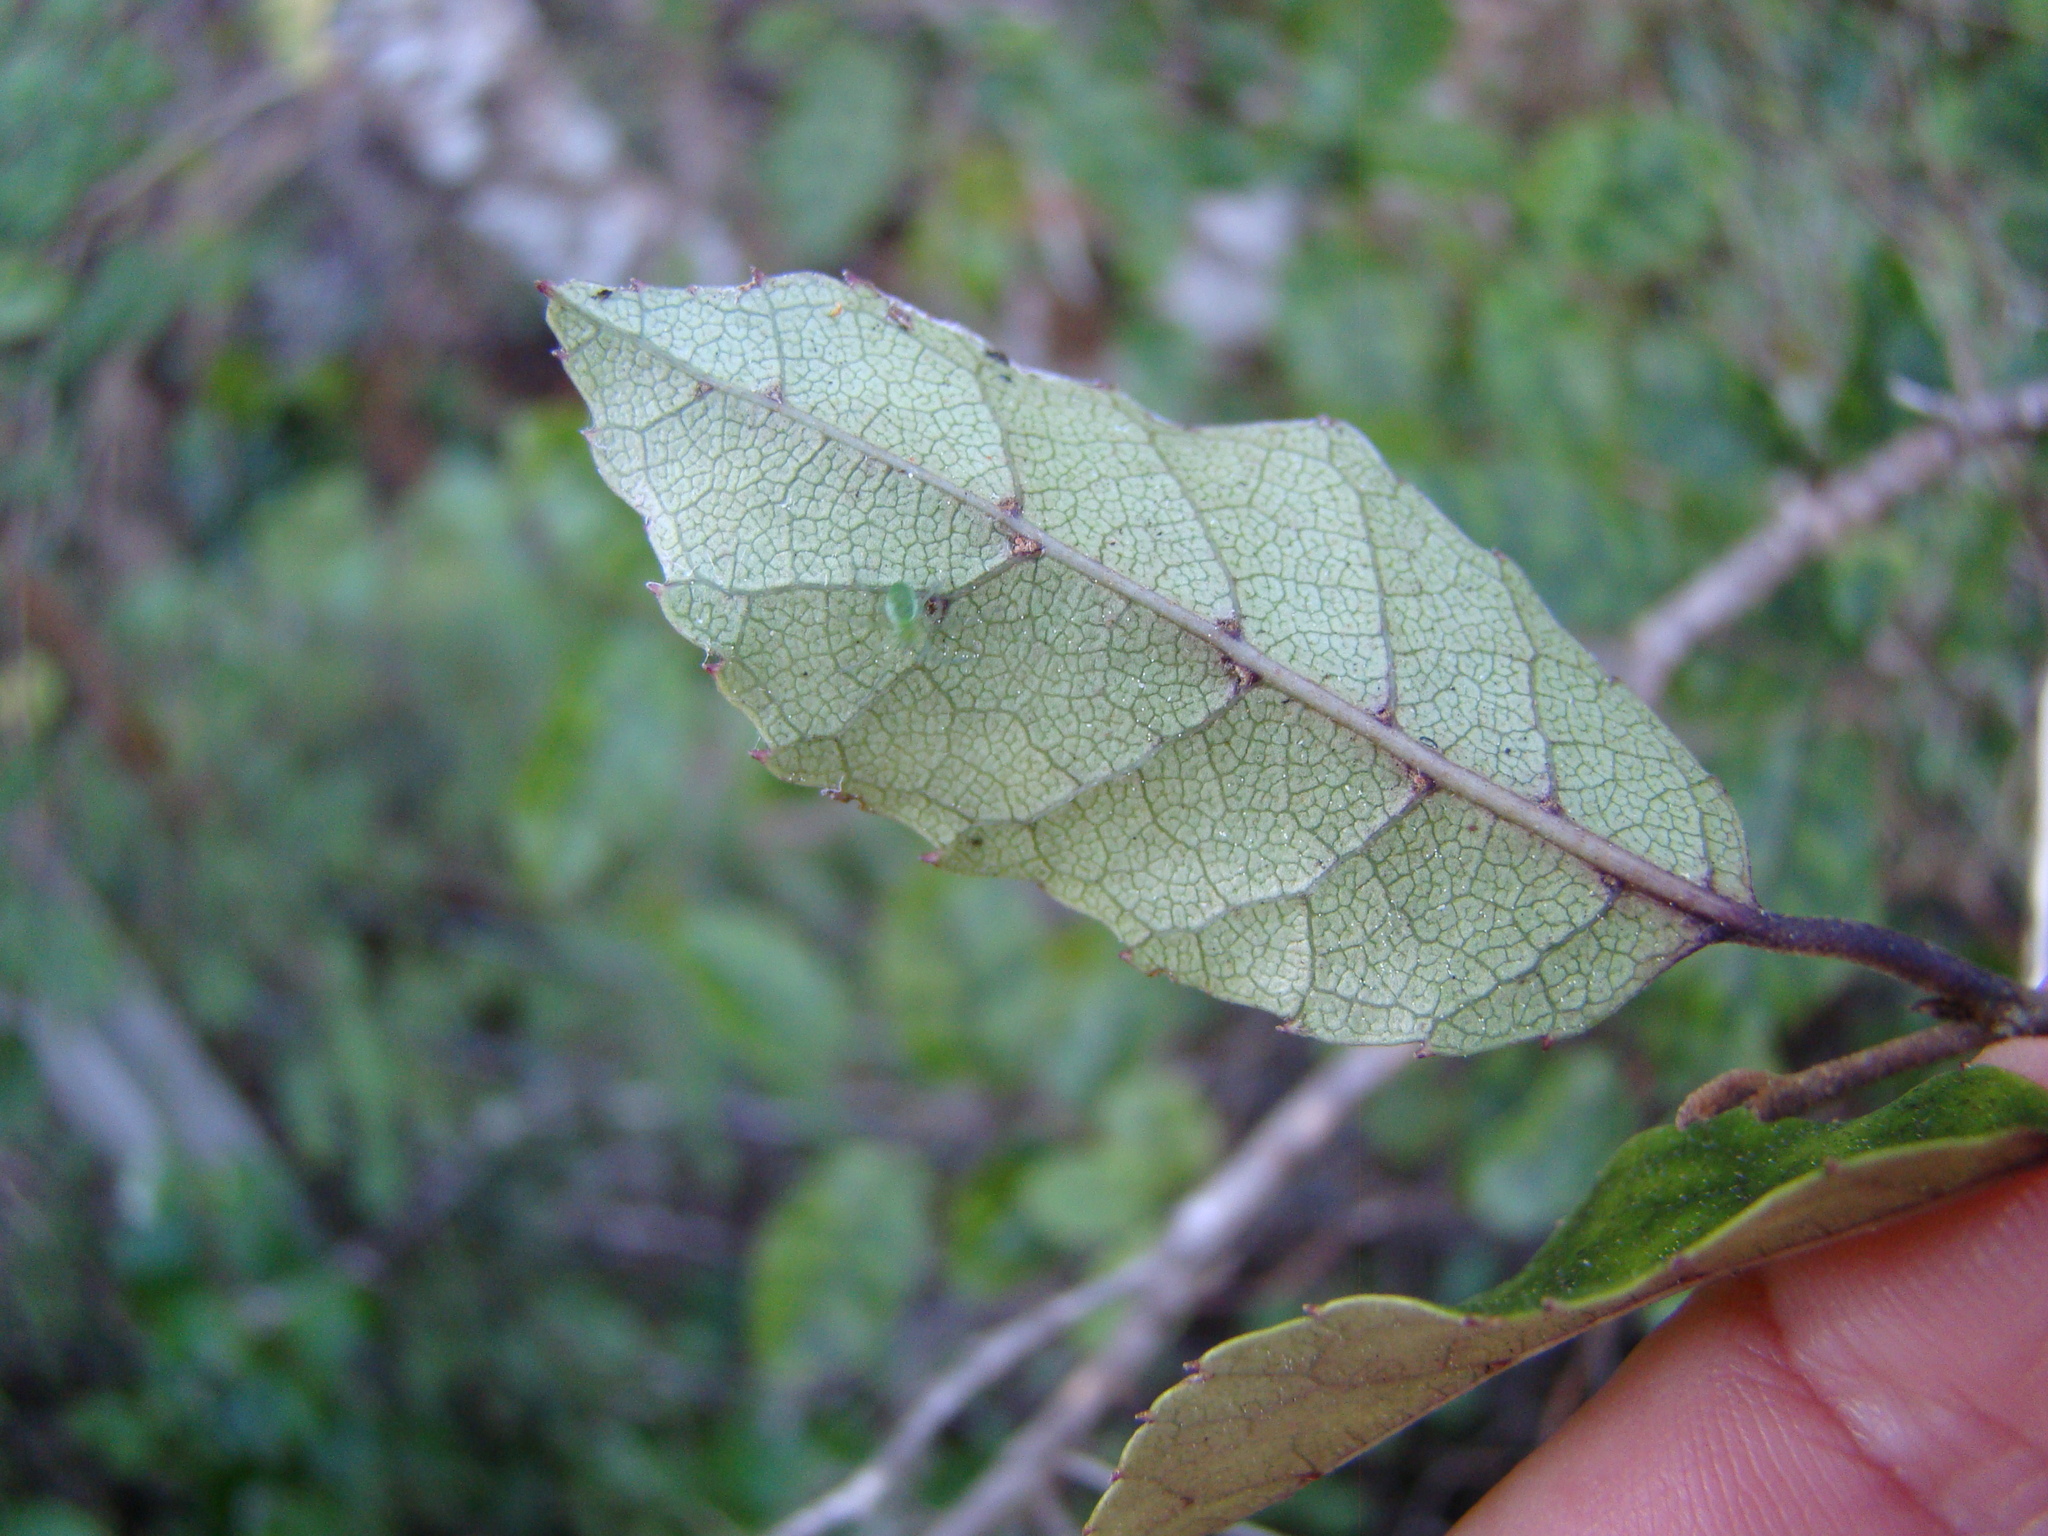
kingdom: Plantae
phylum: Tracheophyta
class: Magnoliopsida
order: Asterales
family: Rousseaceae
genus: Carpodetus
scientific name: Carpodetus serratus
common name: White mapau
